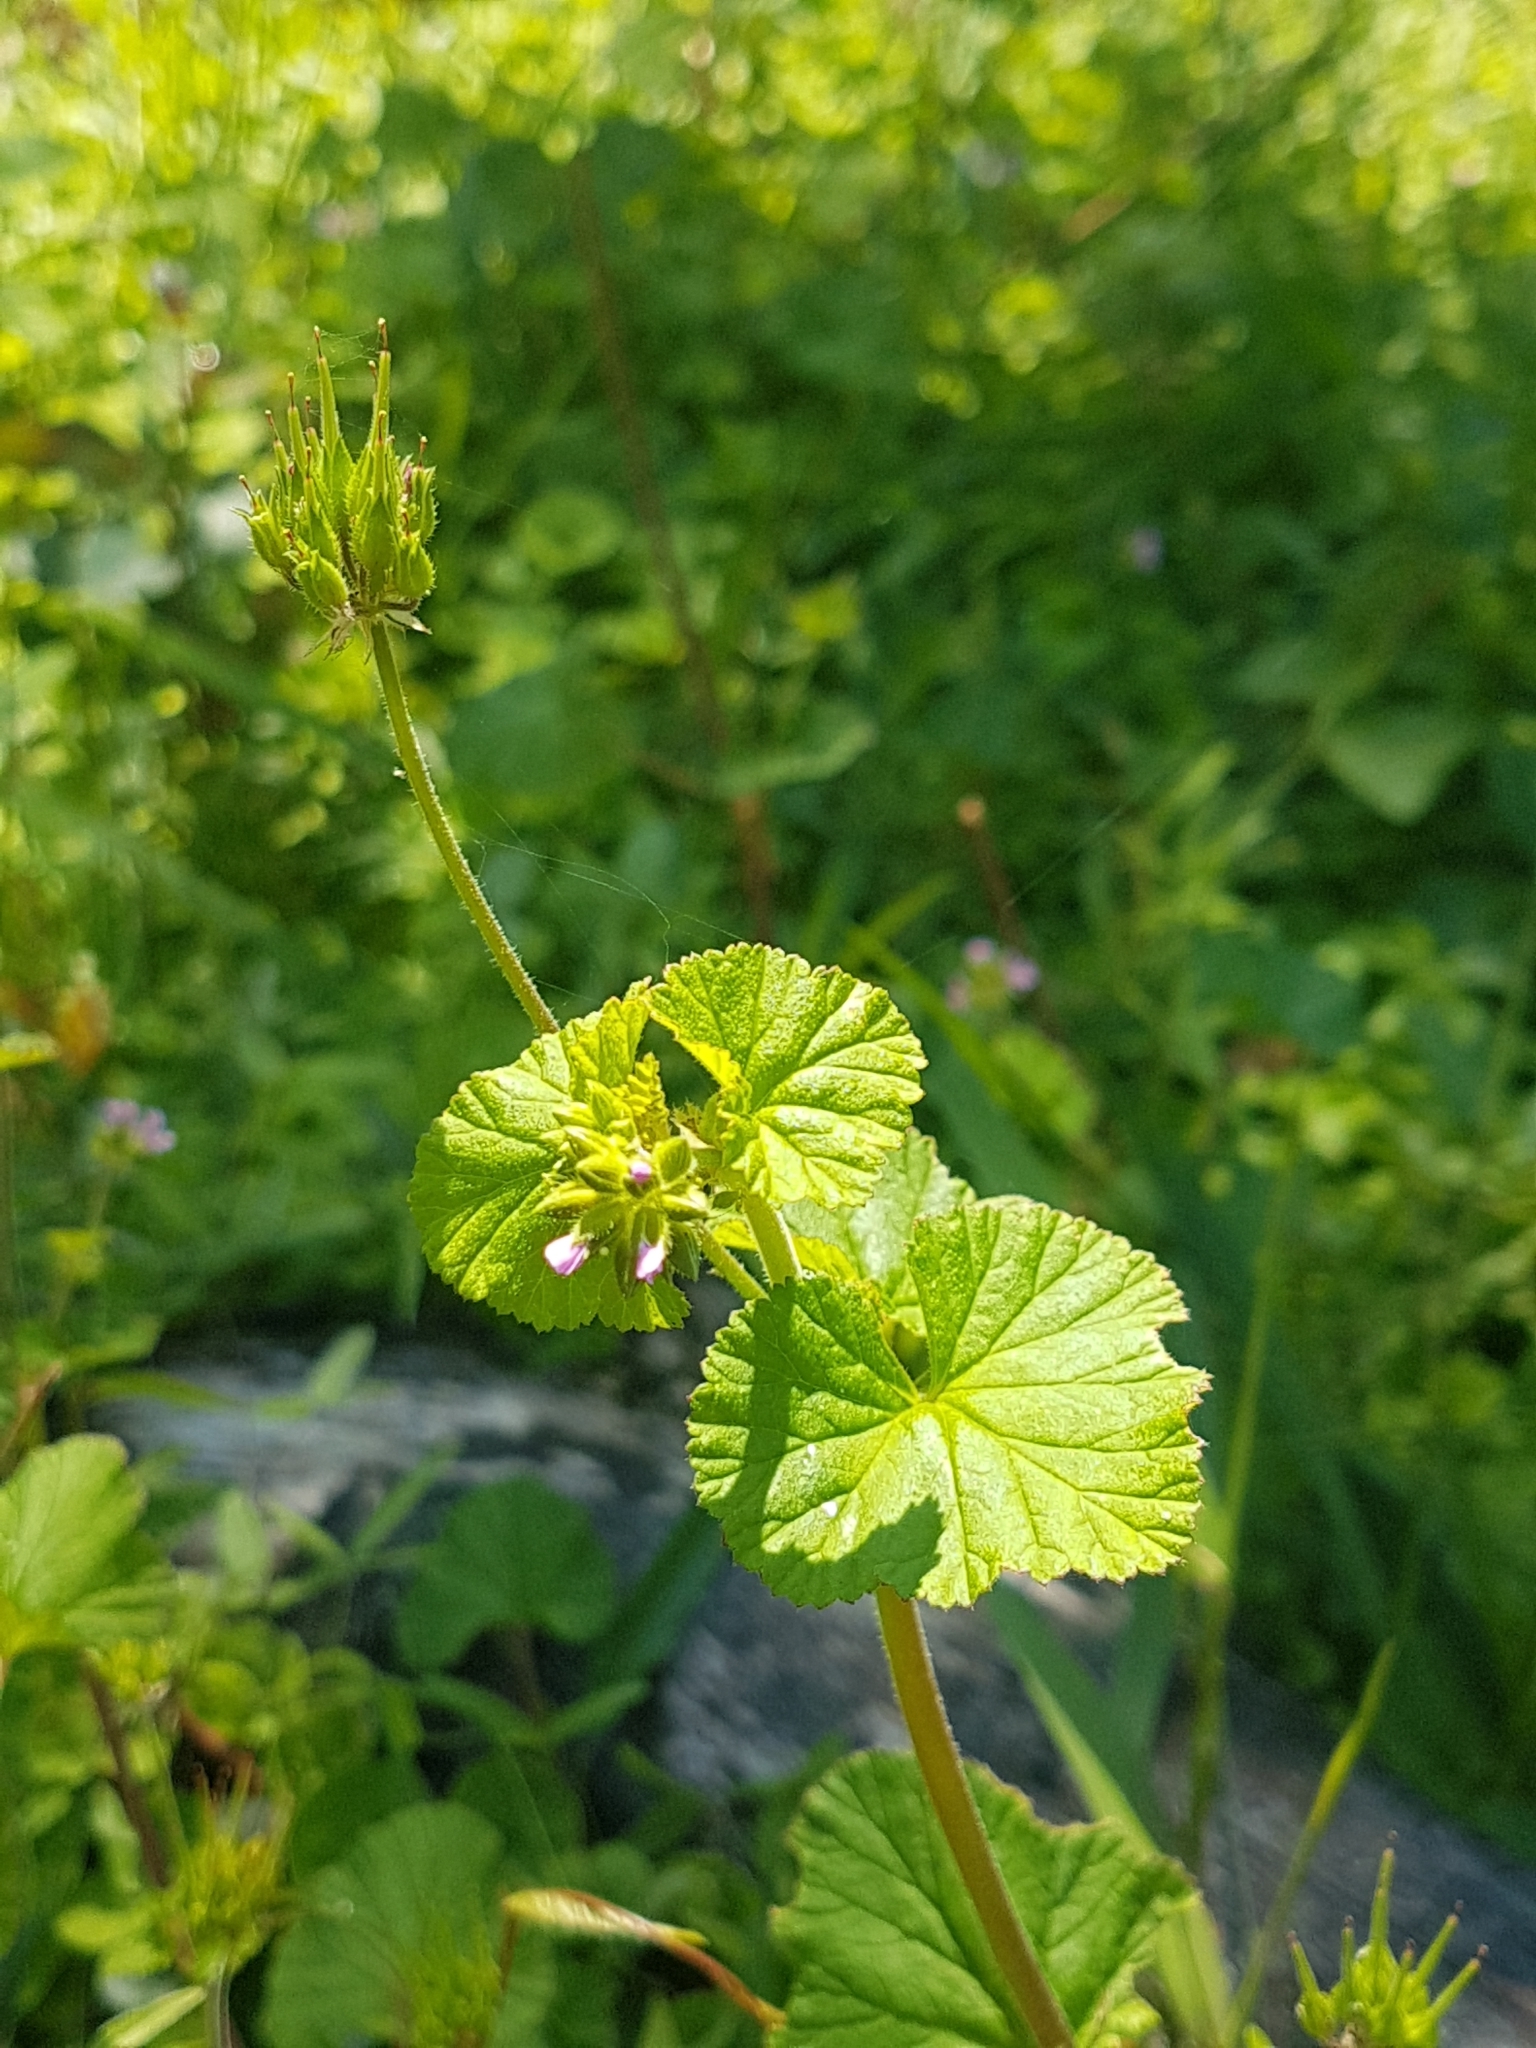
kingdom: Plantae
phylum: Tracheophyta
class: Magnoliopsida
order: Geraniales
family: Geraniaceae
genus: Pelargonium
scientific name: Pelargonium australe
